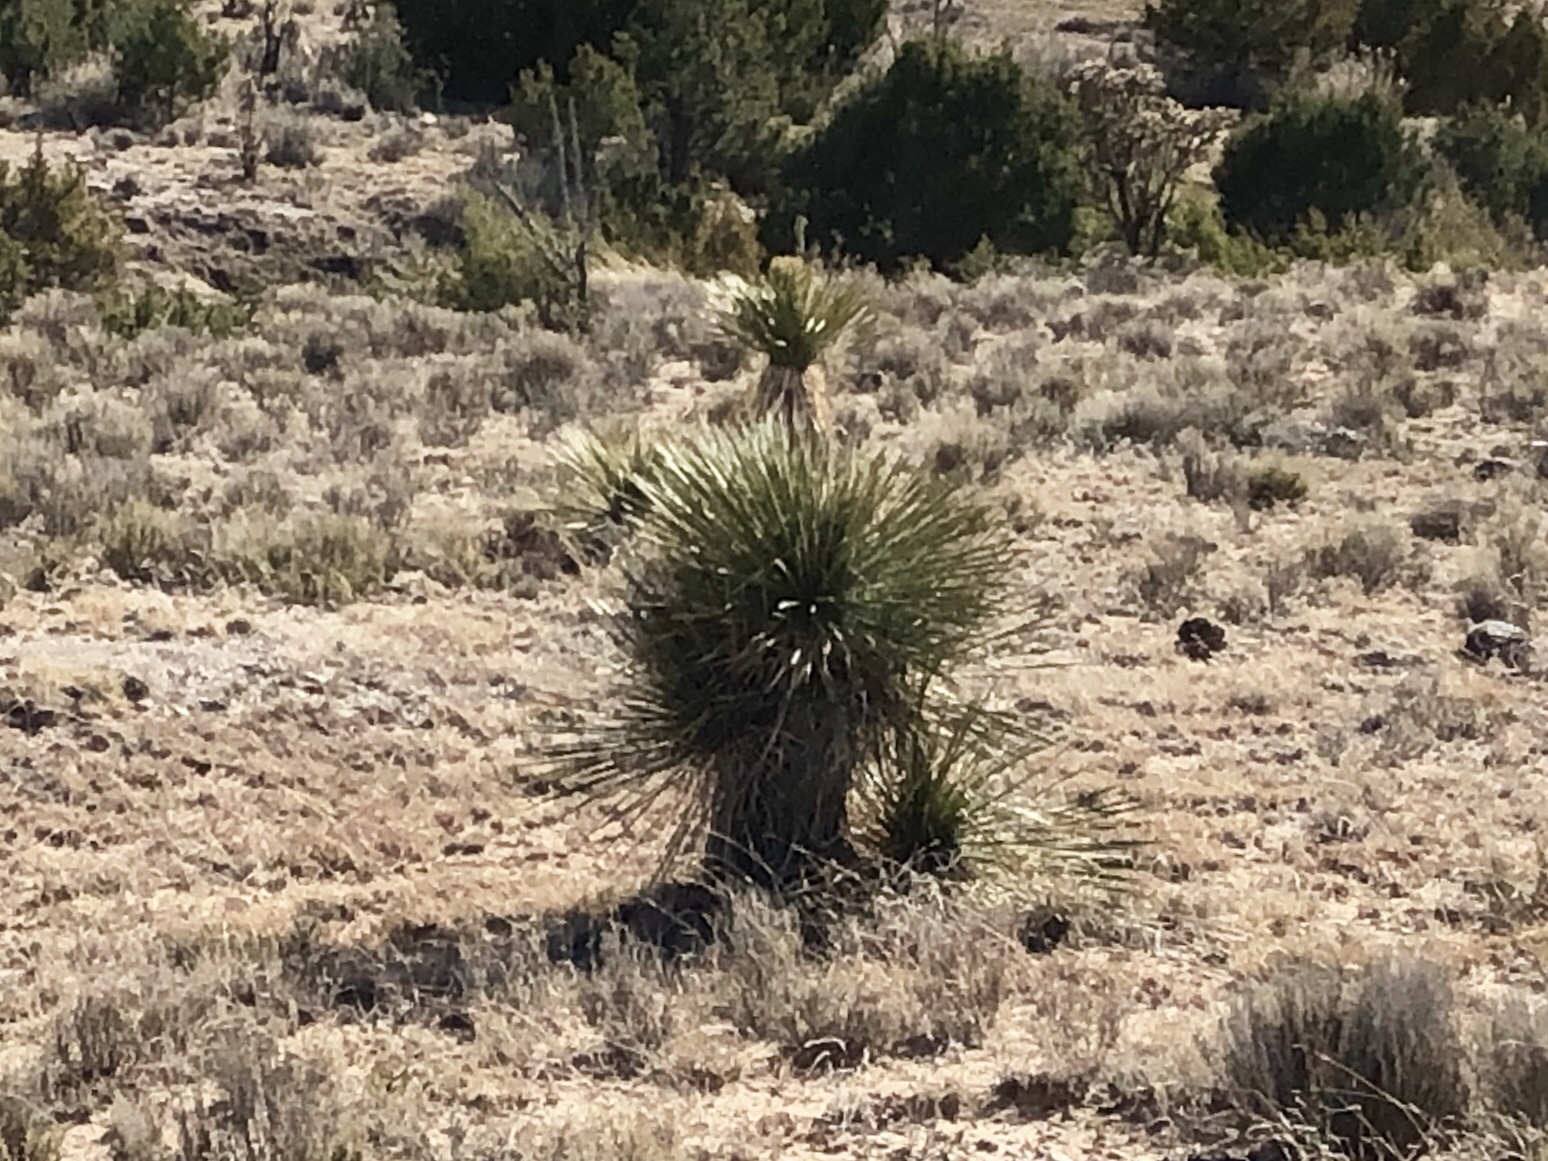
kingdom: Plantae
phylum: Tracheophyta
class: Liliopsida
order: Asparagales
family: Asparagaceae
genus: Yucca
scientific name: Yucca elata
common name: Palmella
